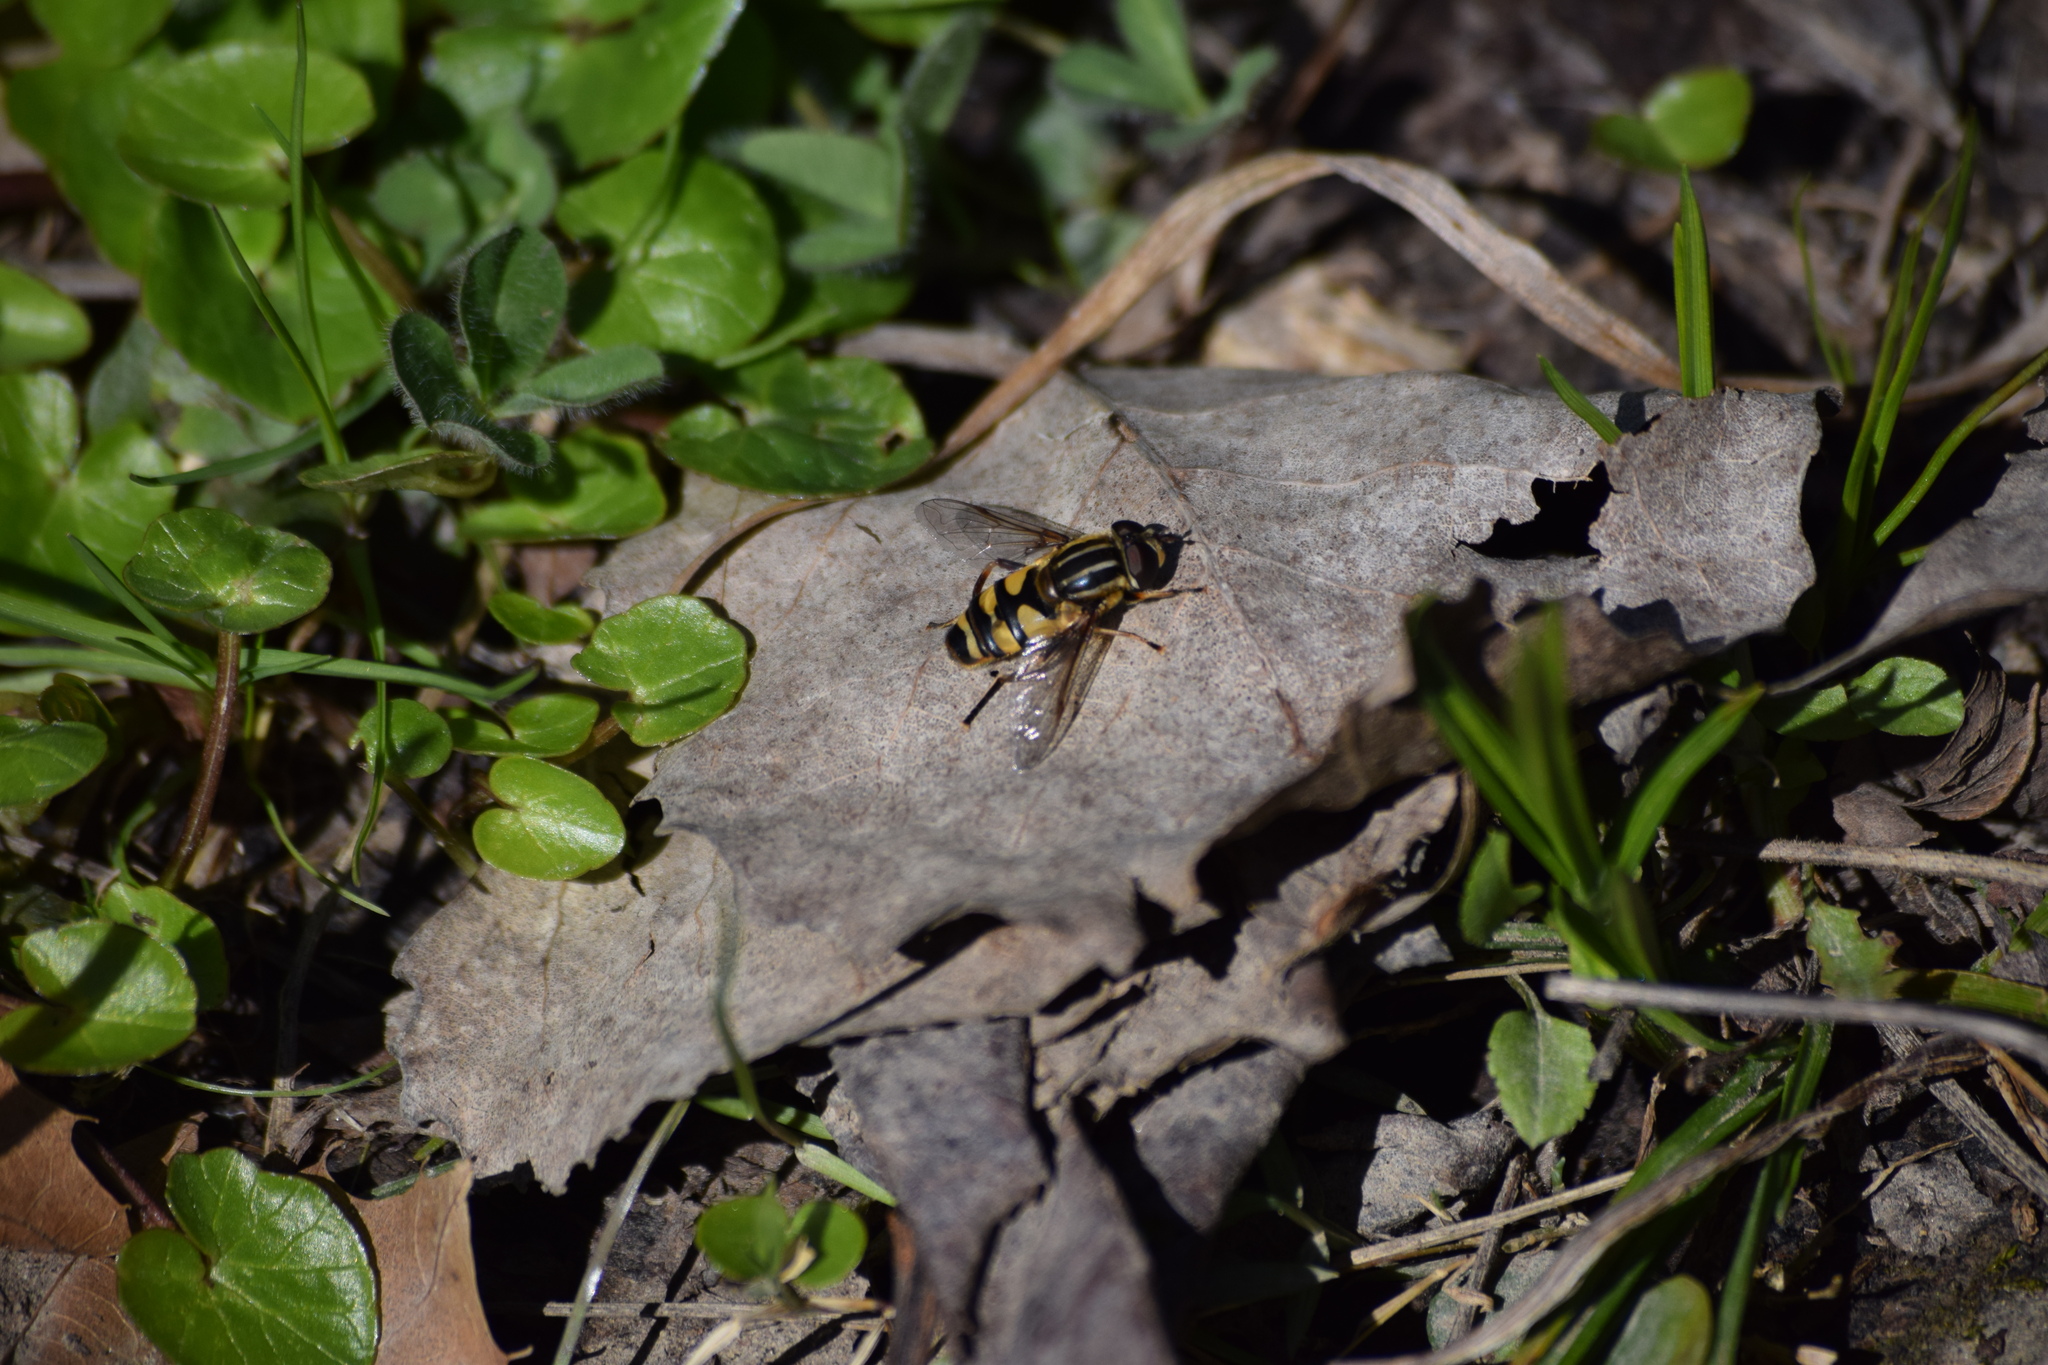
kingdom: Animalia
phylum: Arthropoda
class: Insecta
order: Diptera
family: Syrphidae
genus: Helophilus
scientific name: Helophilus fasciatus
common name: Narrow-headed marsh fly
